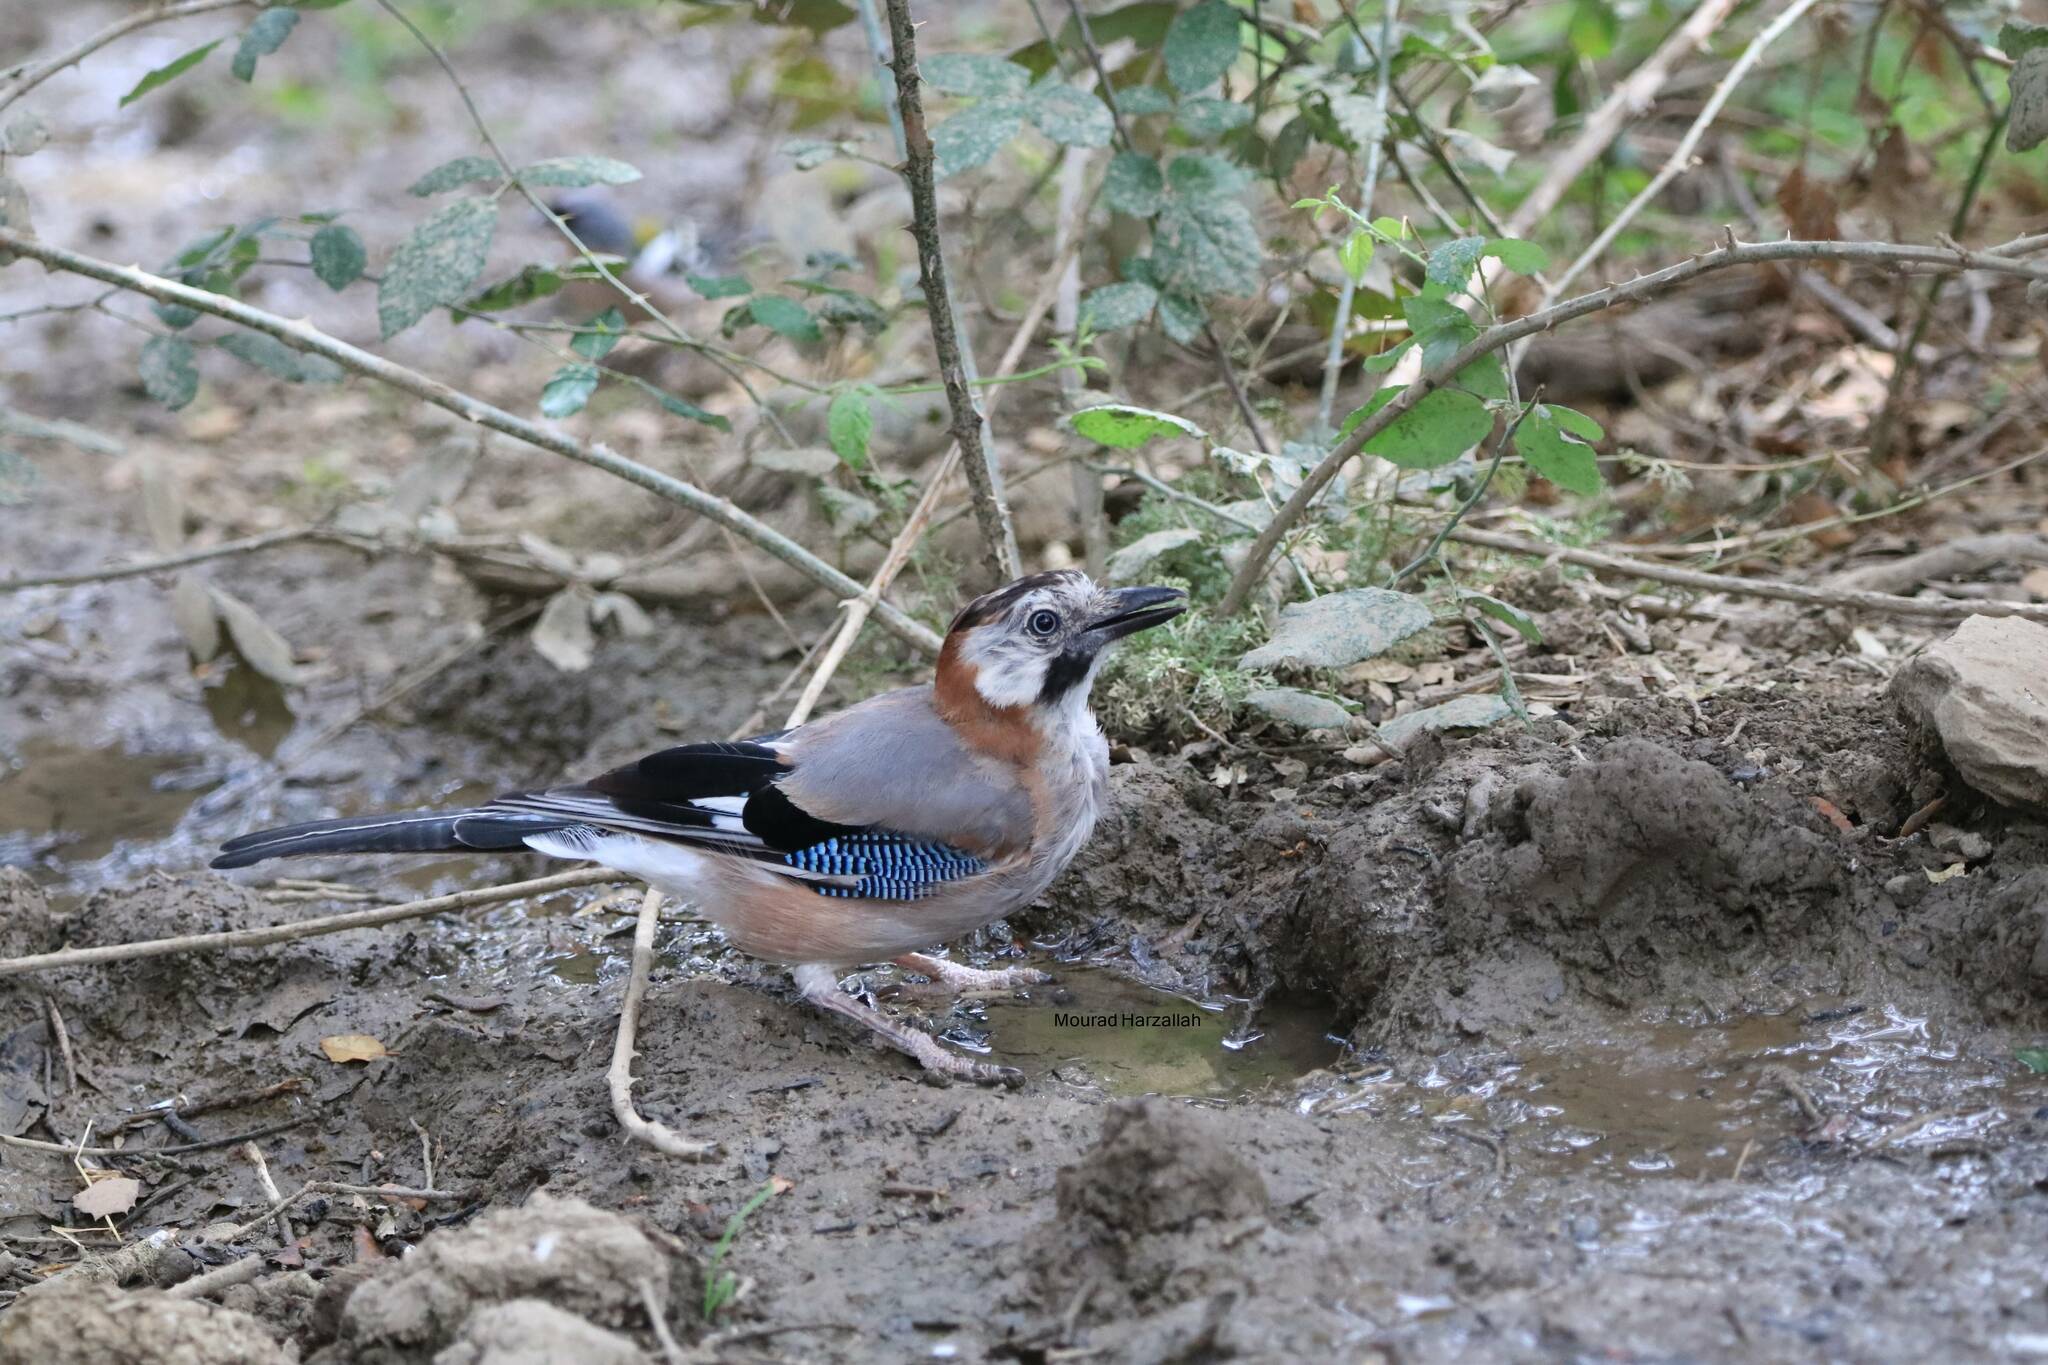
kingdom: Animalia
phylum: Chordata
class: Aves
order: Passeriformes
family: Corvidae
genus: Garrulus
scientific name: Garrulus glandarius
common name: Eurasian jay
